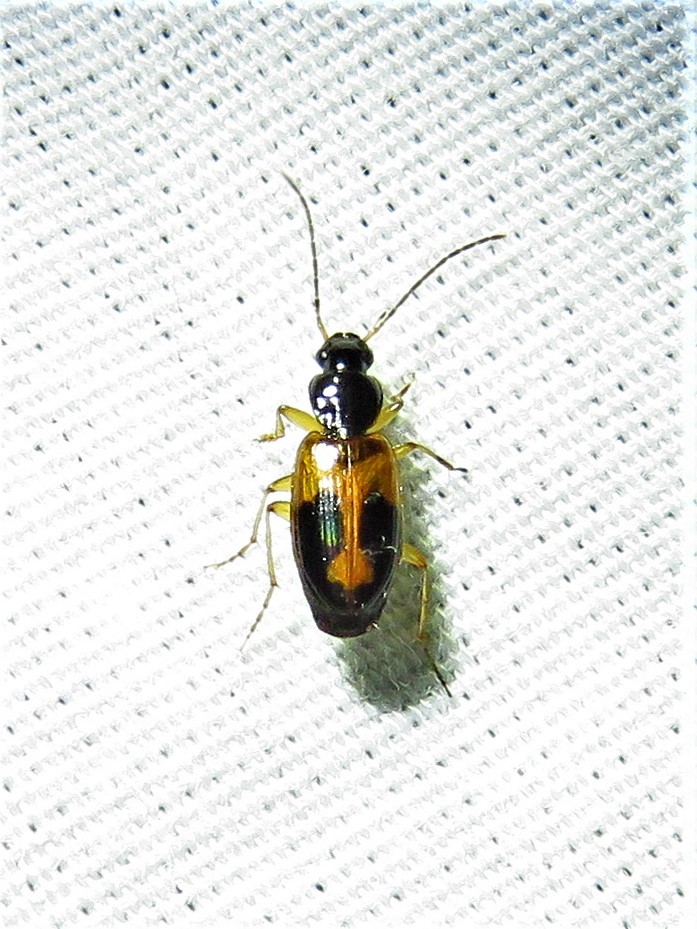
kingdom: Animalia
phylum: Arthropoda
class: Insecta
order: Coleoptera
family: Carabidae
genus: Badister
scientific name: Badister elegans
